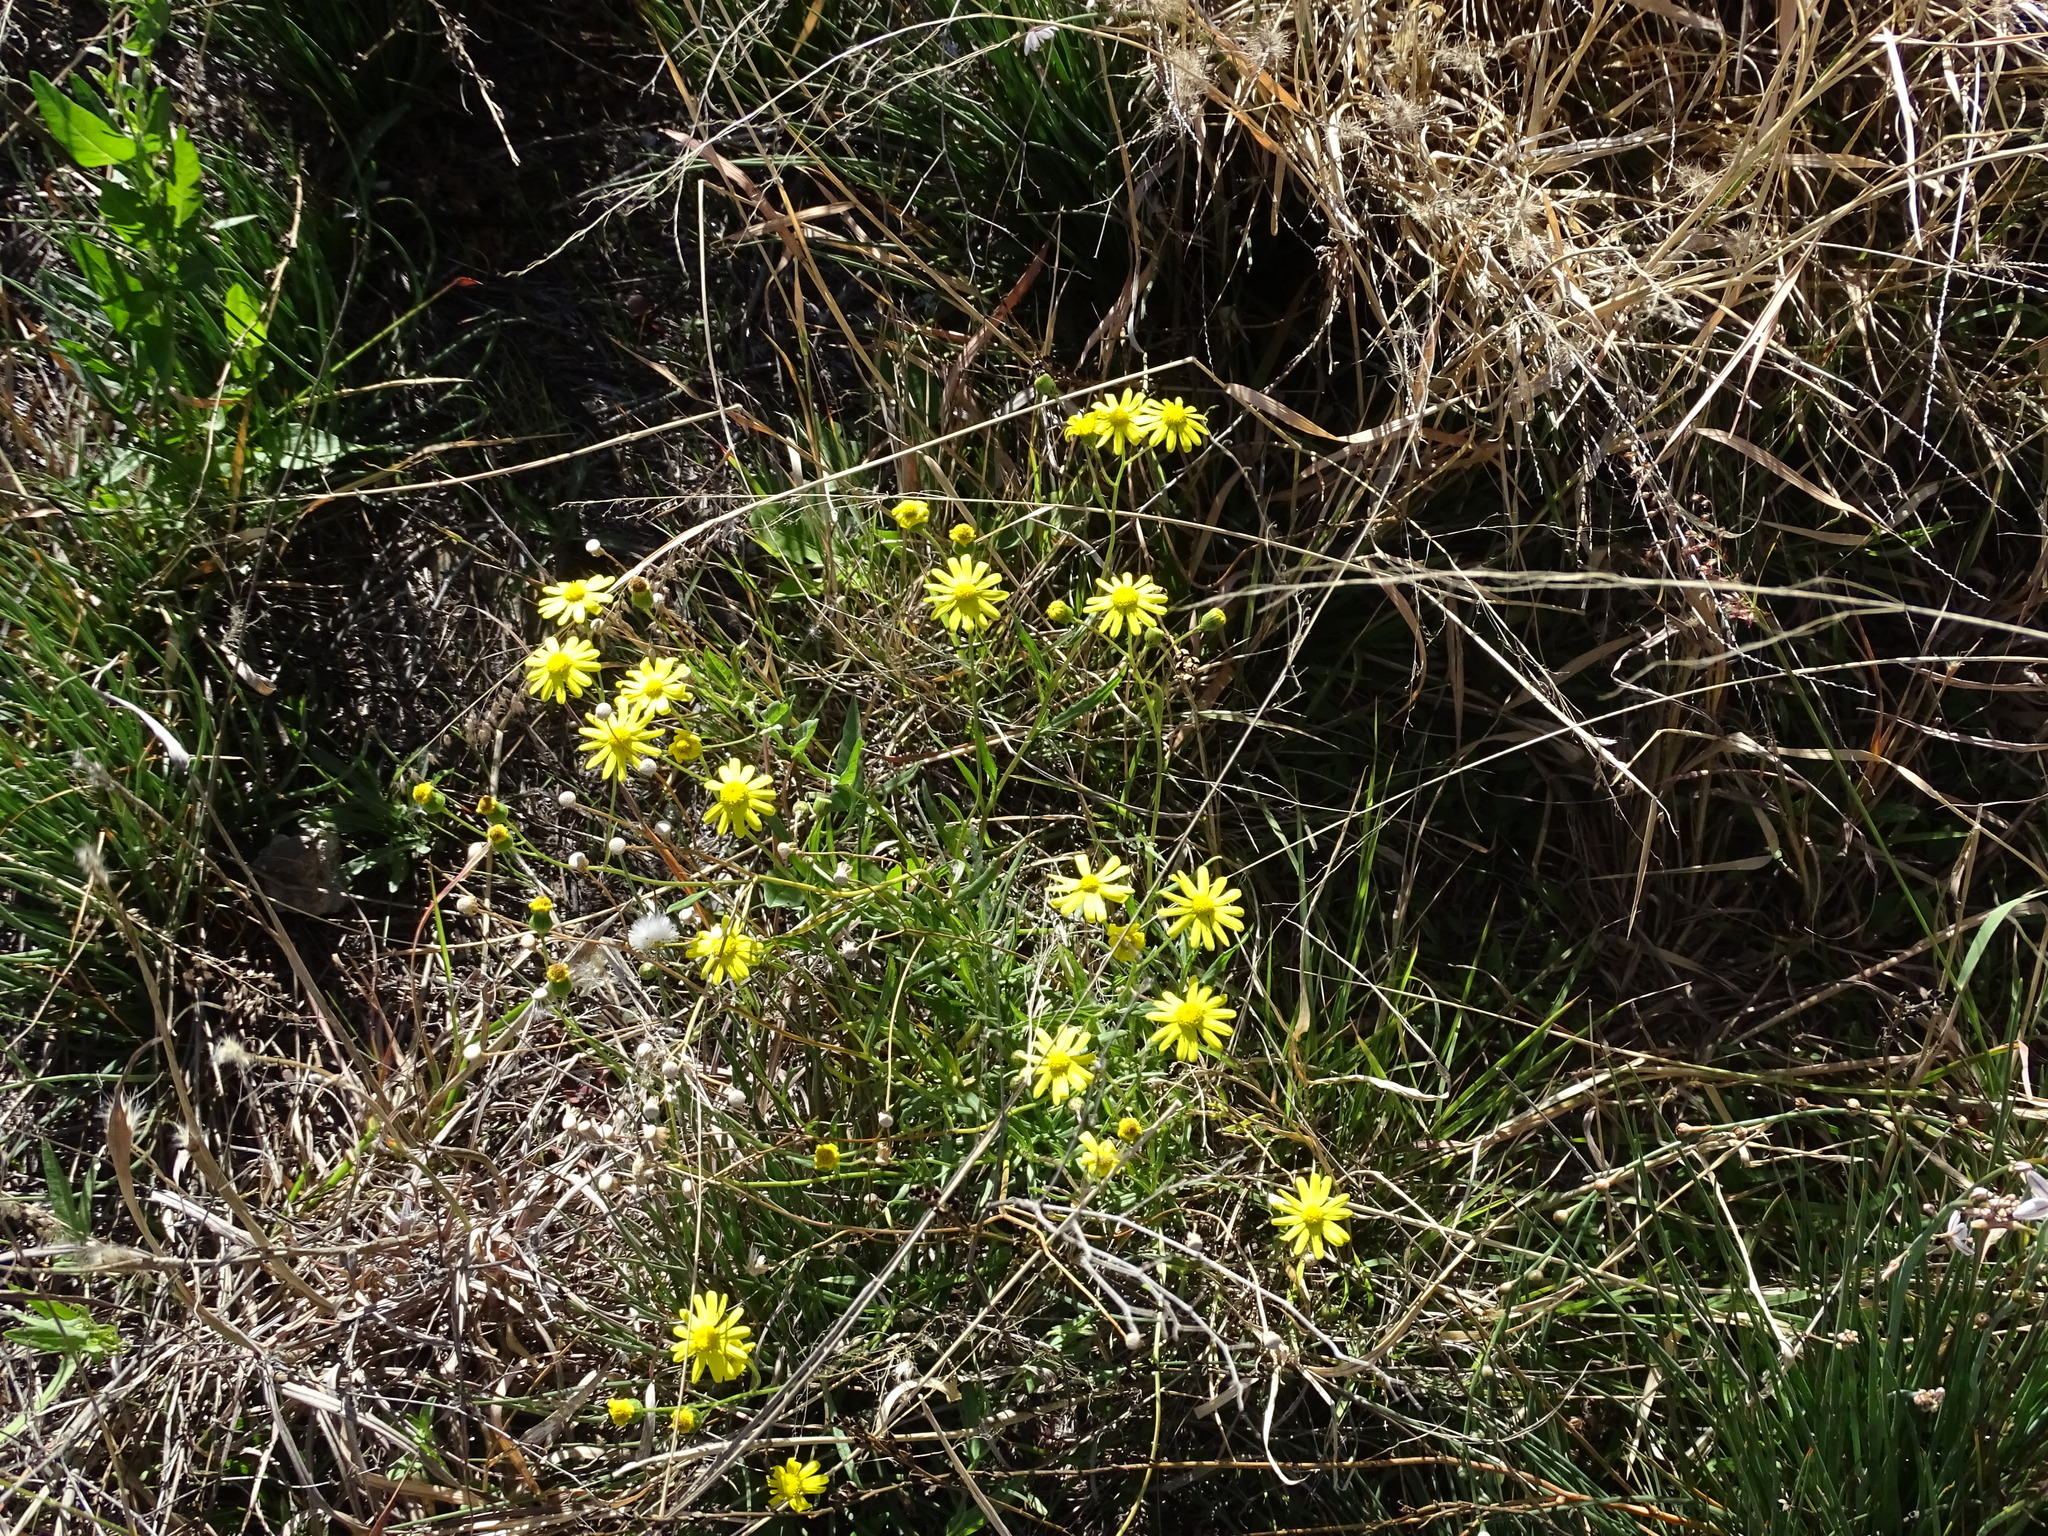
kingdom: Plantae
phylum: Tracheophyta
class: Magnoliopsida
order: Asterales
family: Asteraceae
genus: Senecio
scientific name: Senecio inaequidens
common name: Narrow-leaved ragwort
